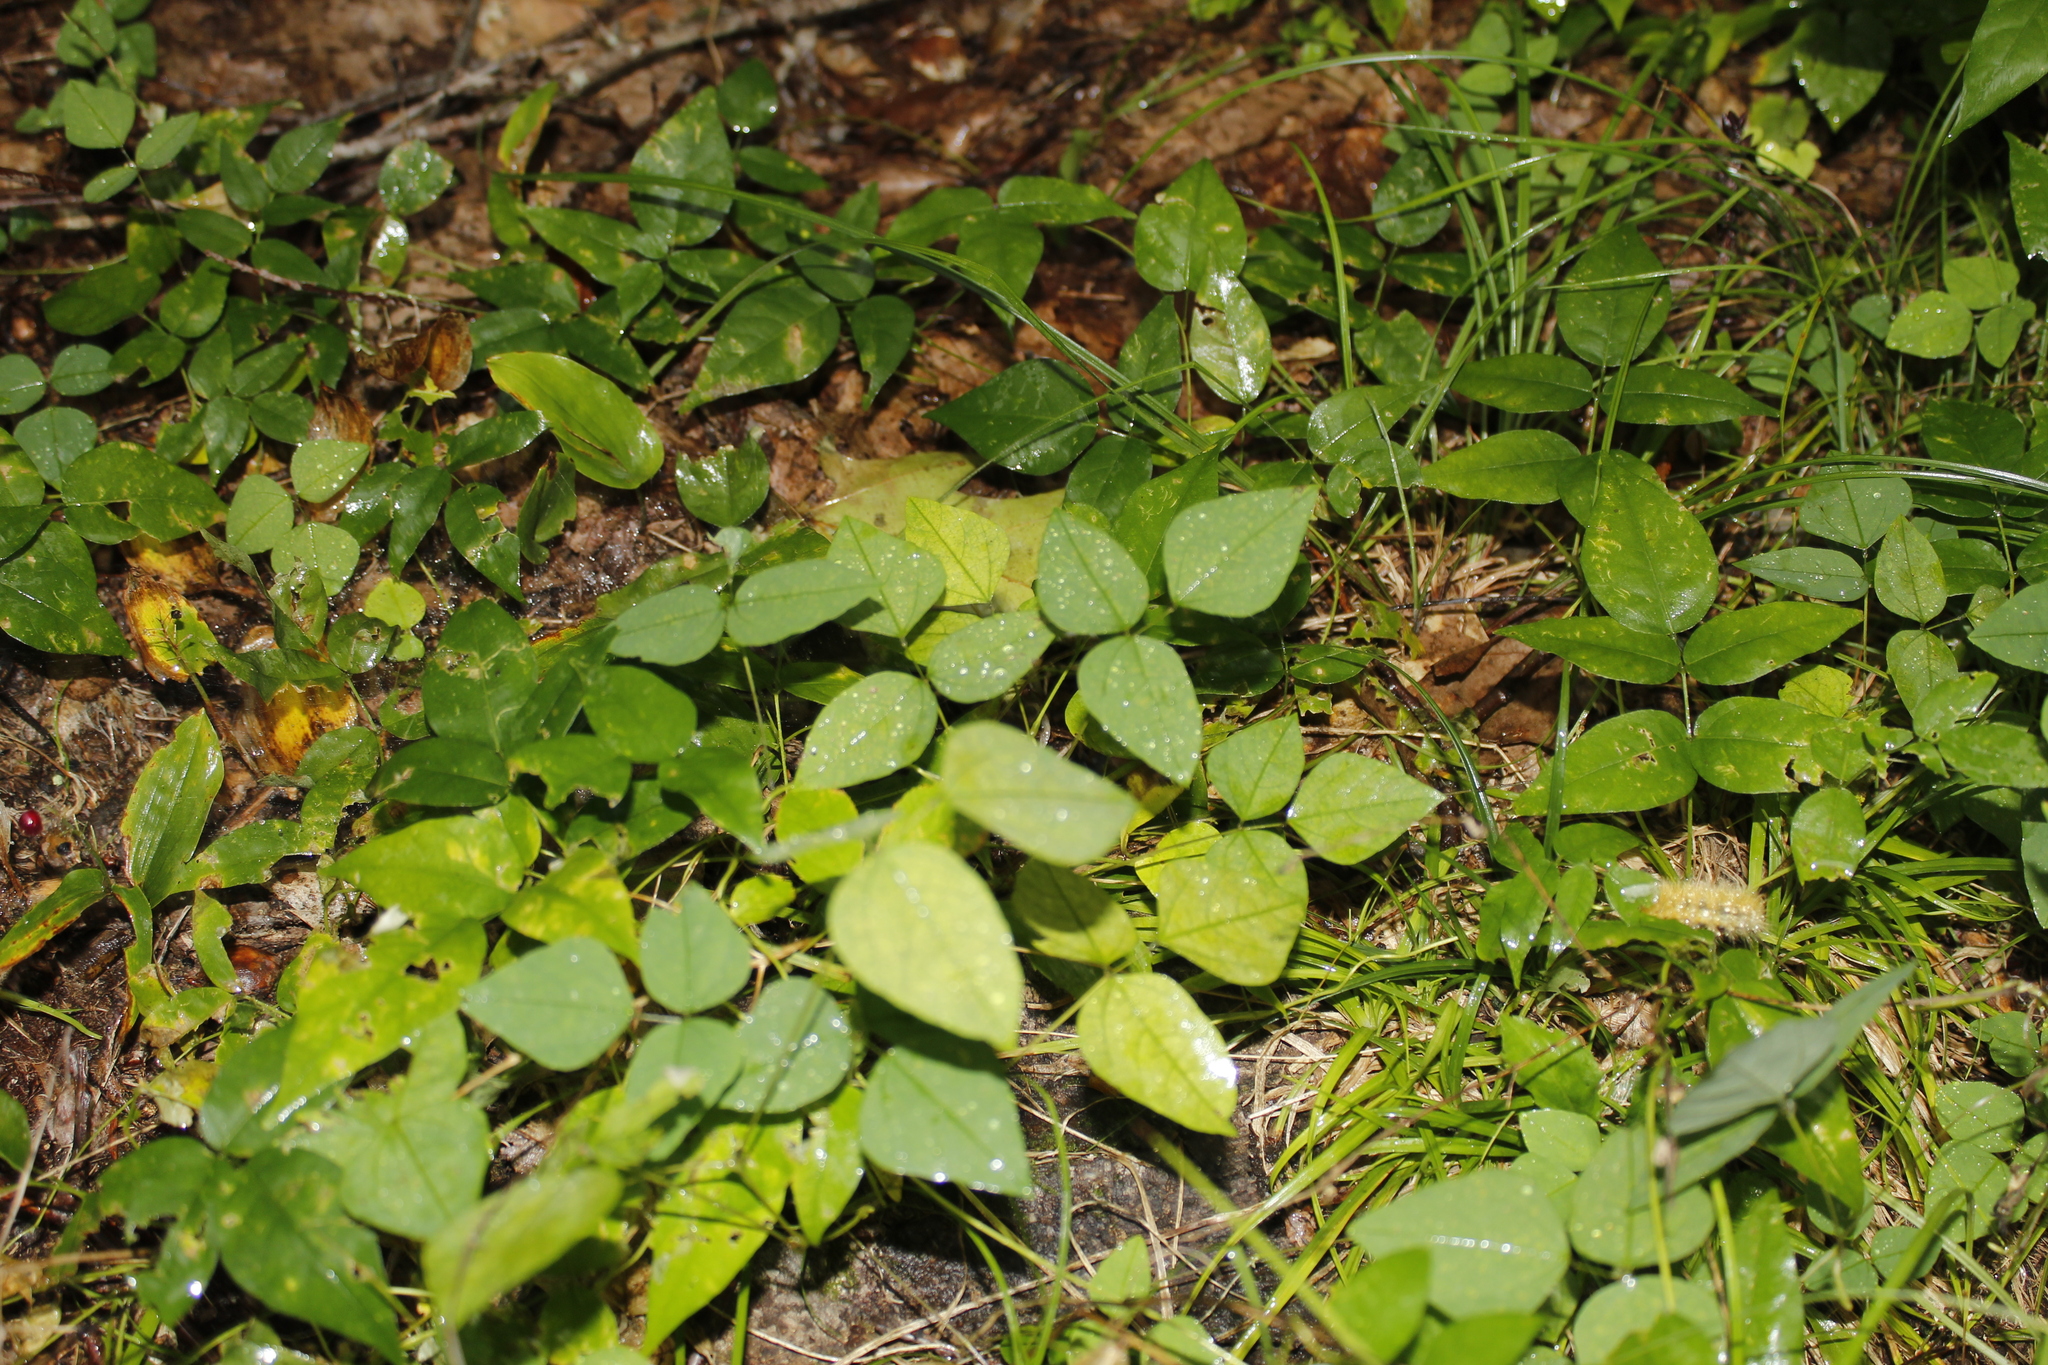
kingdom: Plantae
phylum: Tracheophyta
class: Magnoliopsida
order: Fabales
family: Fabaceae
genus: Amphicarpaea
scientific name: Amphicarpaea bracteata
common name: American hog peanut
